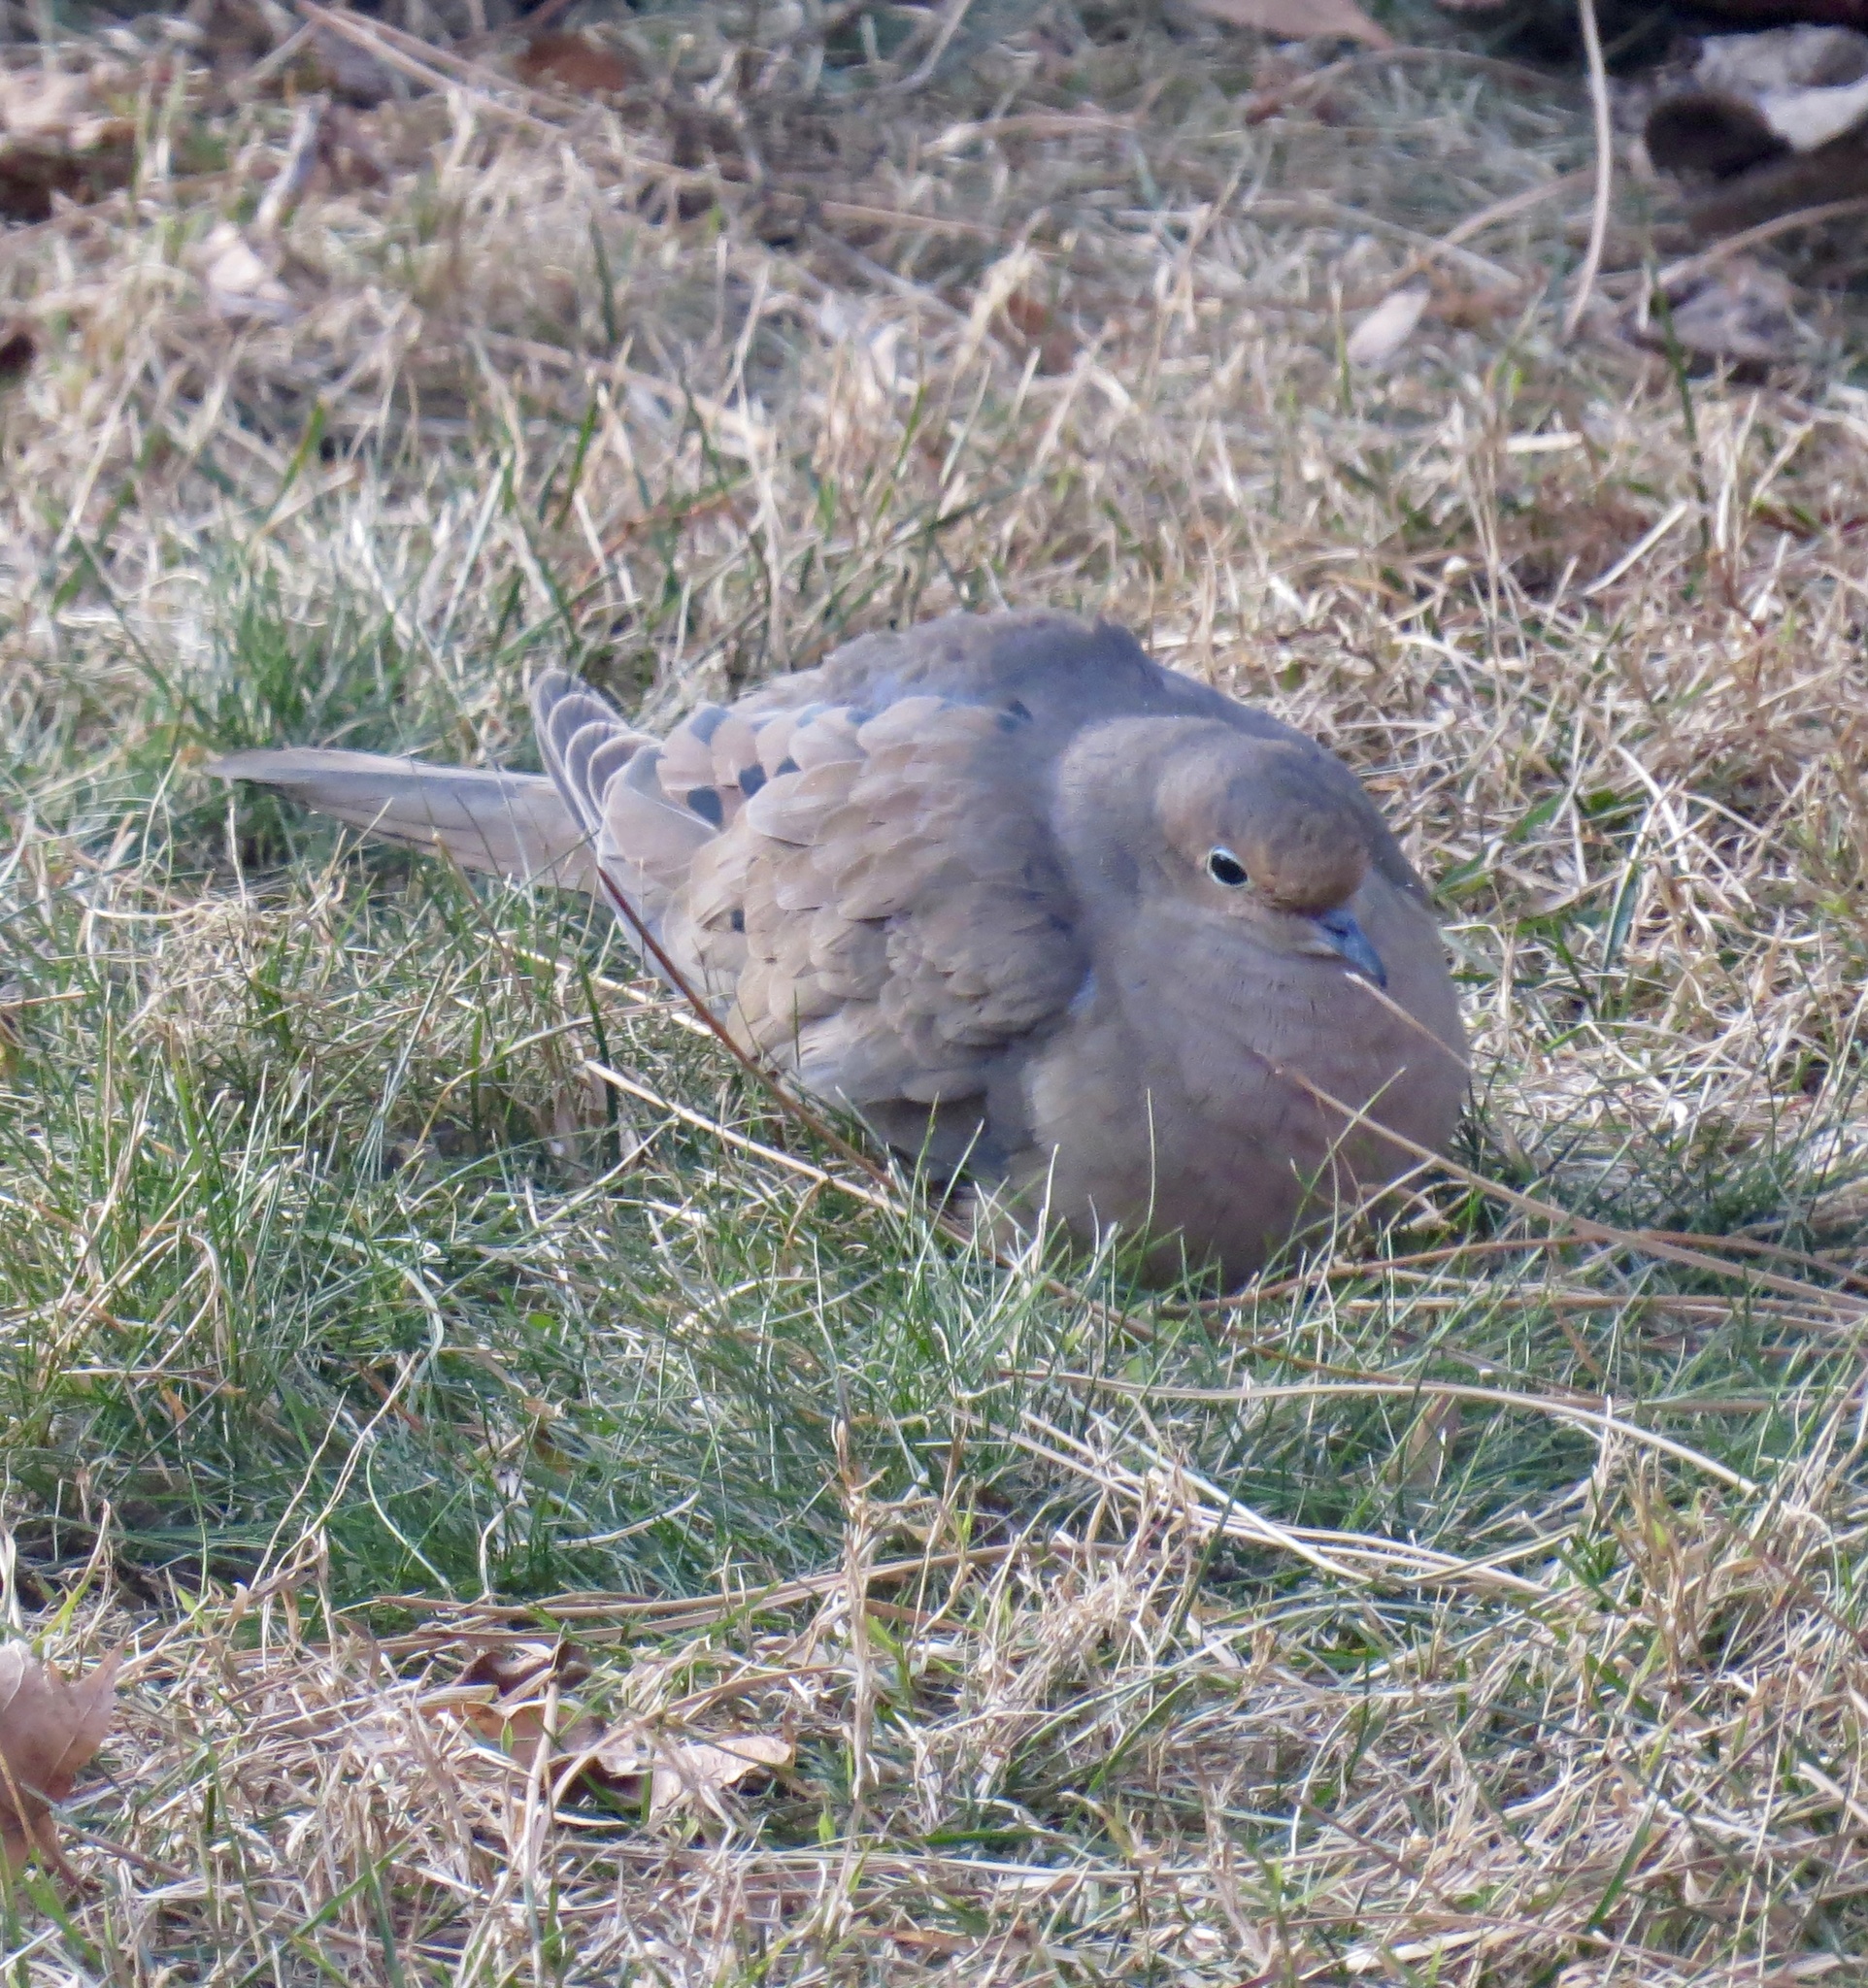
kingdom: Animalia
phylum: Chordata
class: Aves
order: Columbiformes
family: Columbidae
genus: Zenaida
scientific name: Zenaida macroura
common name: Mourning dove
